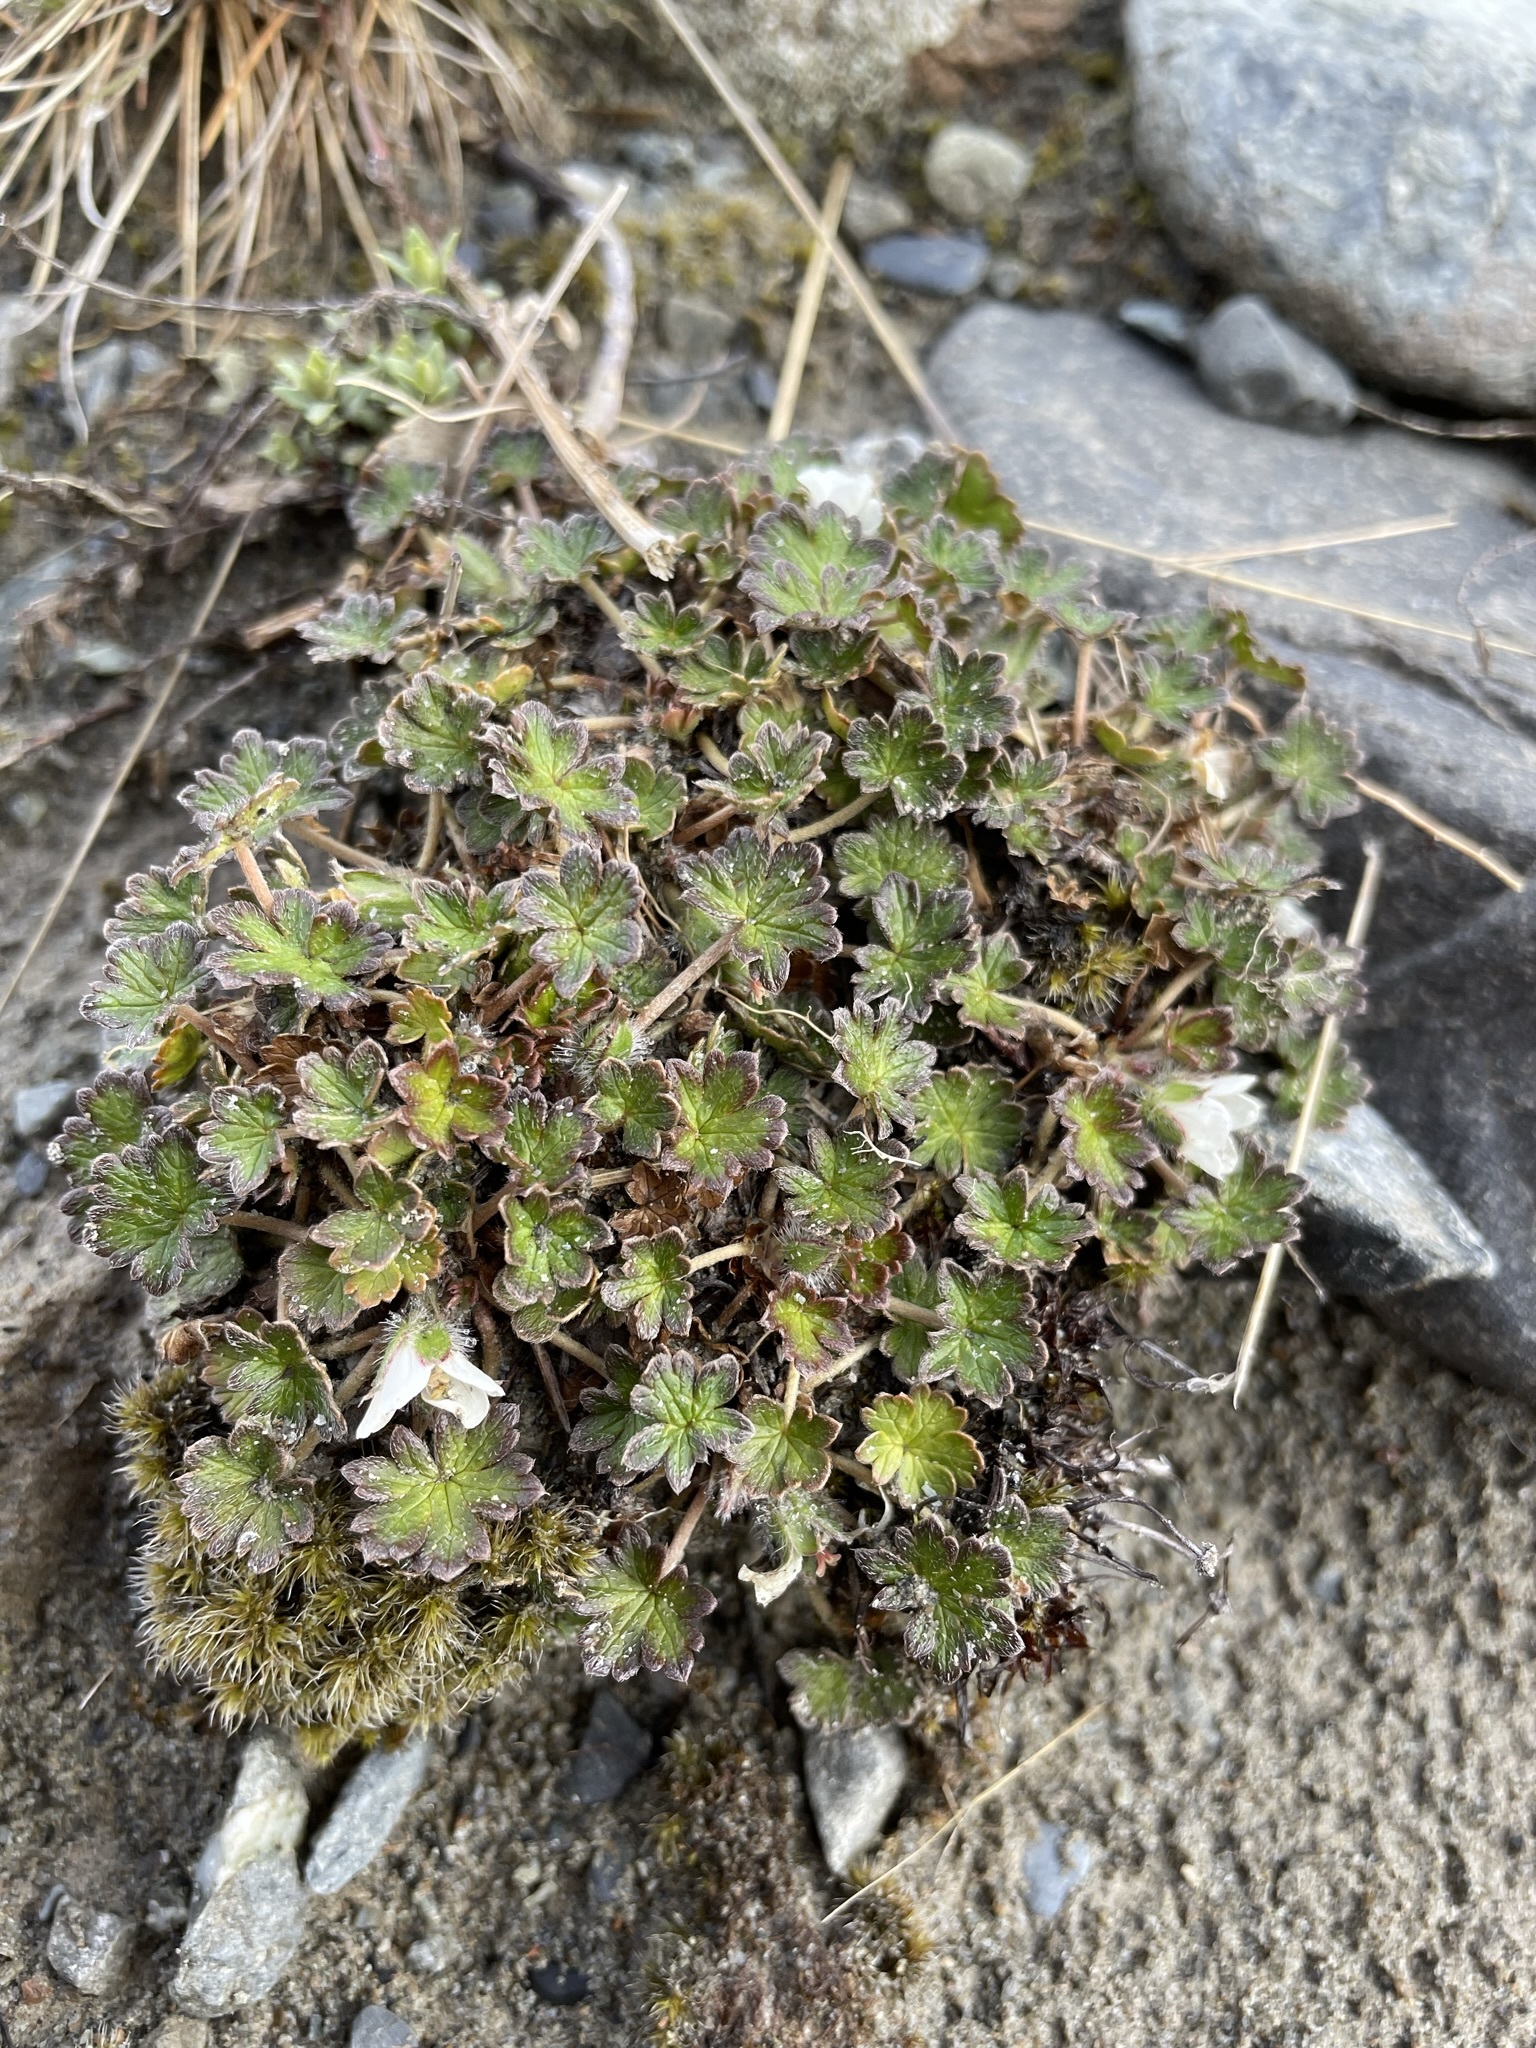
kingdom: Plantae
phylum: Tracheophyta
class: Magnoliopsida
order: Geraniales
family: Geraniaceae
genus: Geranium
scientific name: Geranium brevicaule
